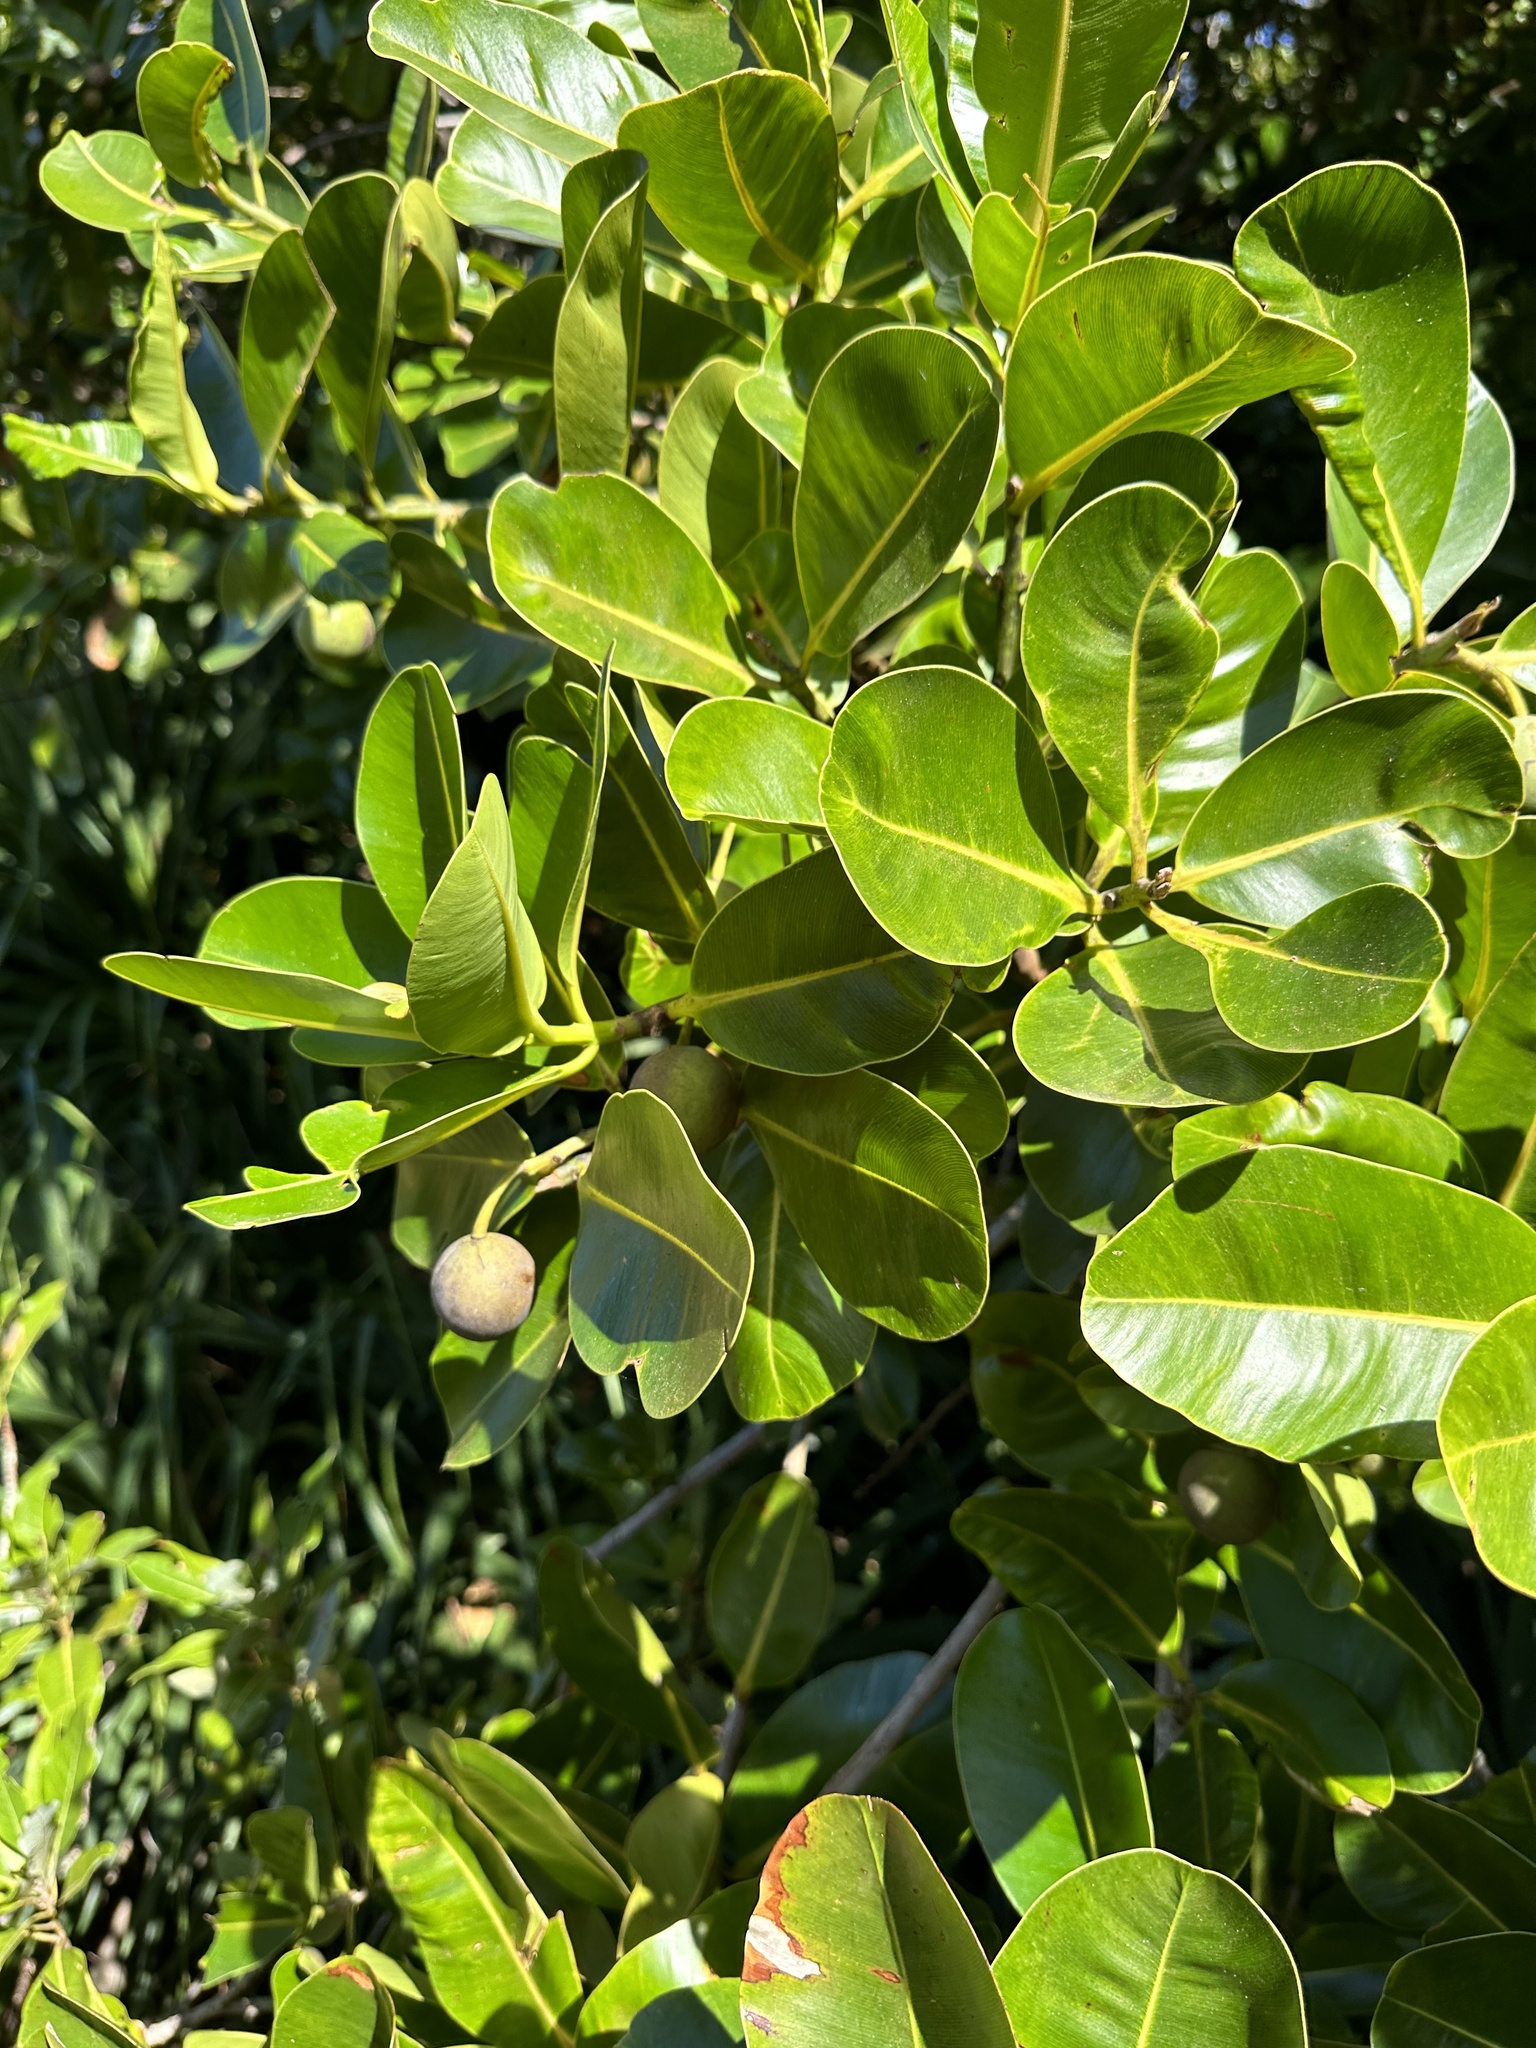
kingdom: Plantae
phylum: Tracheophyta
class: Magnoliopsida
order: Malpighiales
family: Calophyllaceae
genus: Calophyllum
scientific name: Calophyllum inophyllum
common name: Alexandrian laurel
